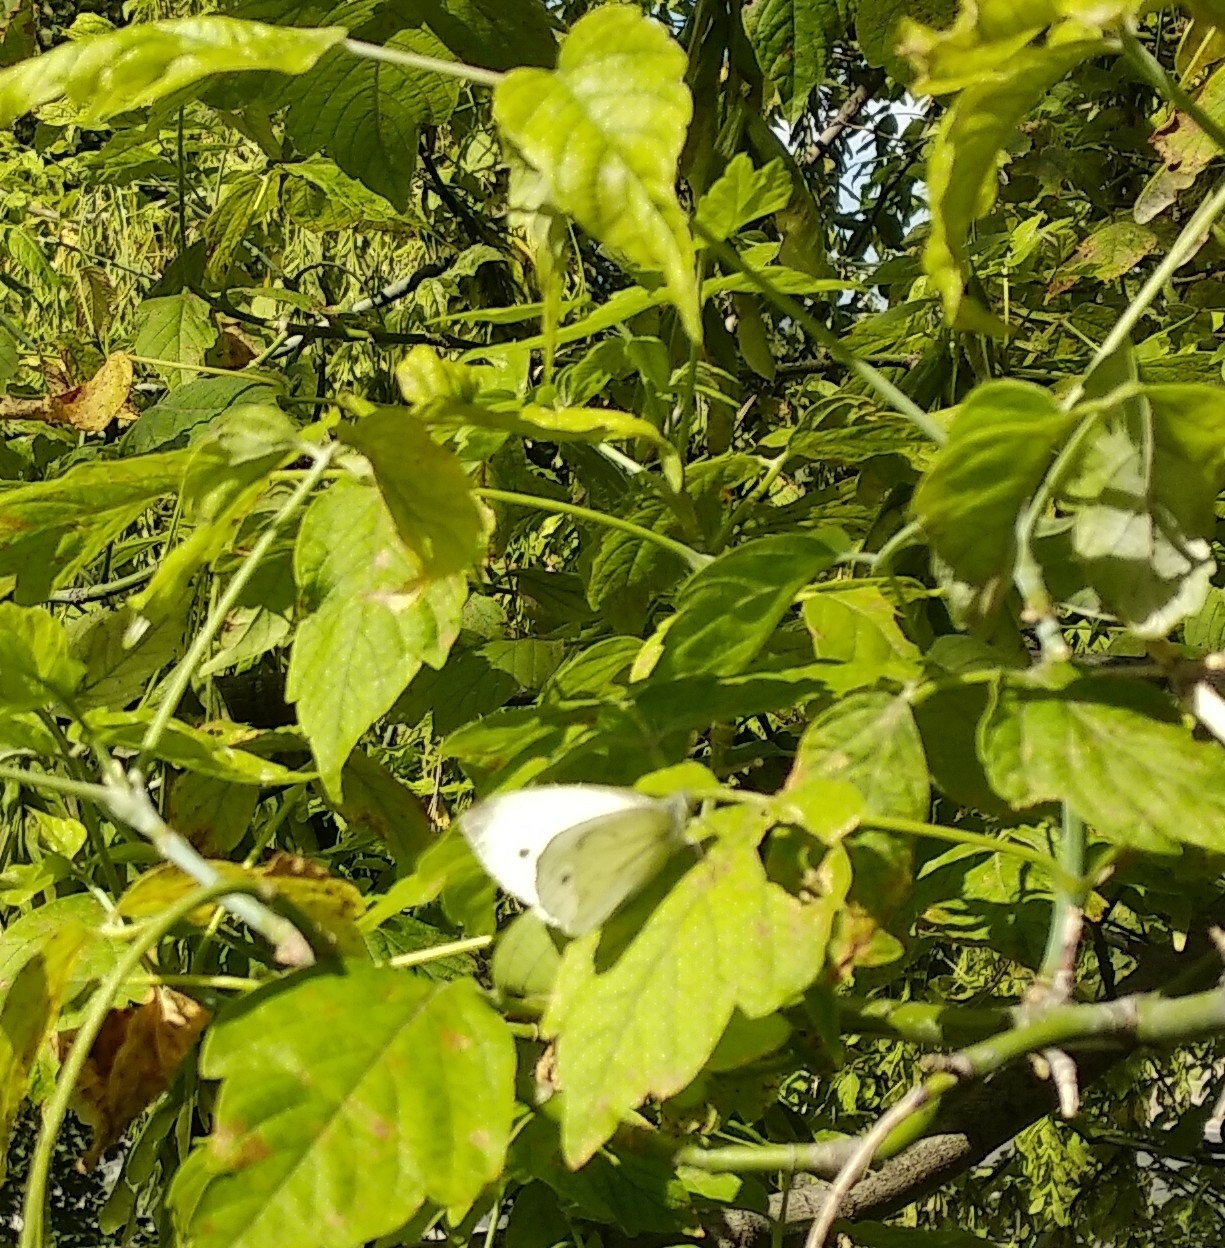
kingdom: Animalia
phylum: Arthropoda
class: Insecta
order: Lepidoptera
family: Pieridae
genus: Pieris
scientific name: Pieris napi
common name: Green-veined white
